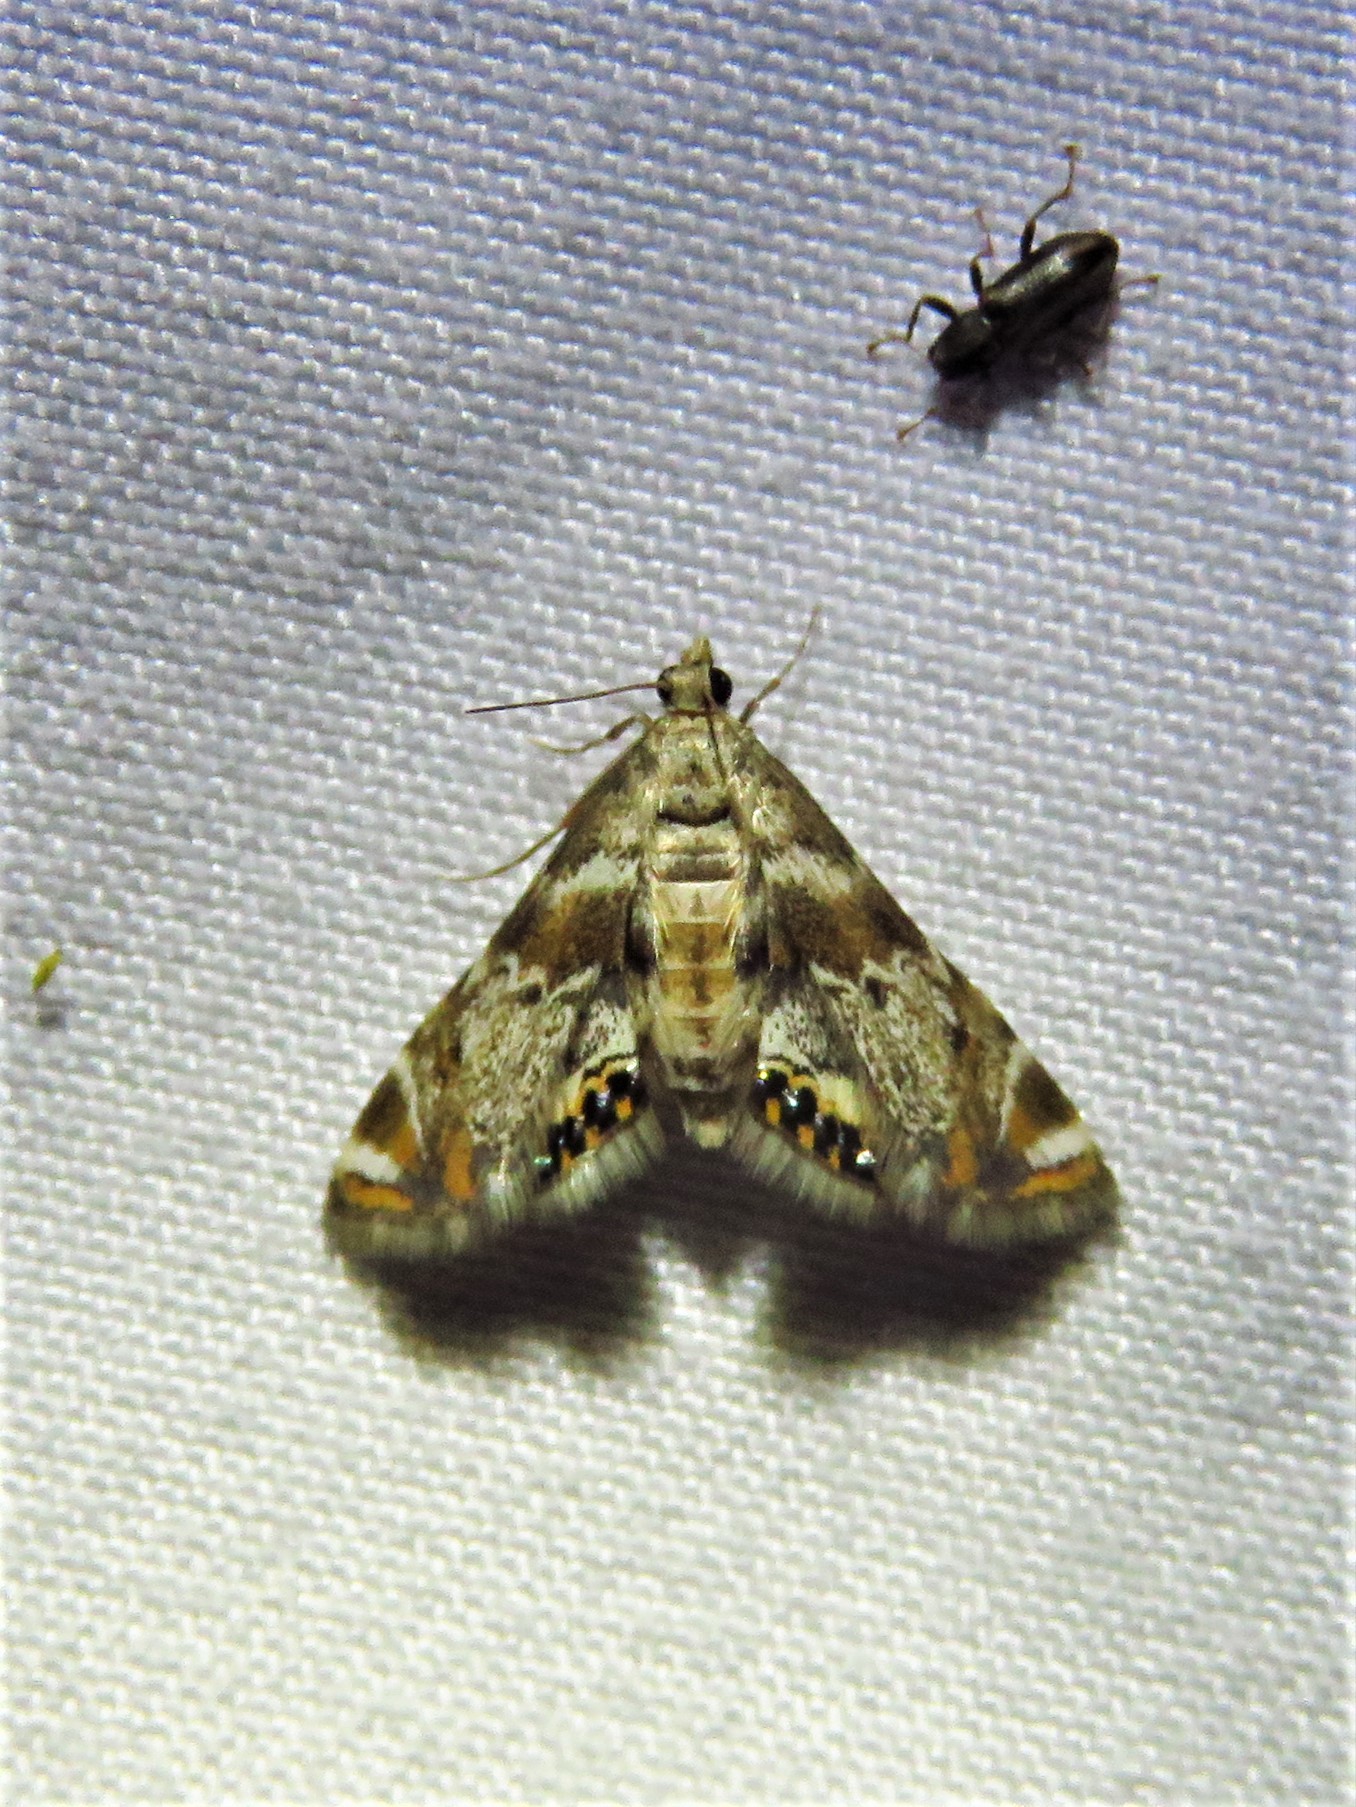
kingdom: Animalia
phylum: Arthropoda
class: Insecta
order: Lepidoptera
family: Crambidae
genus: Petrophila
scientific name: Petrophila fulicalis
